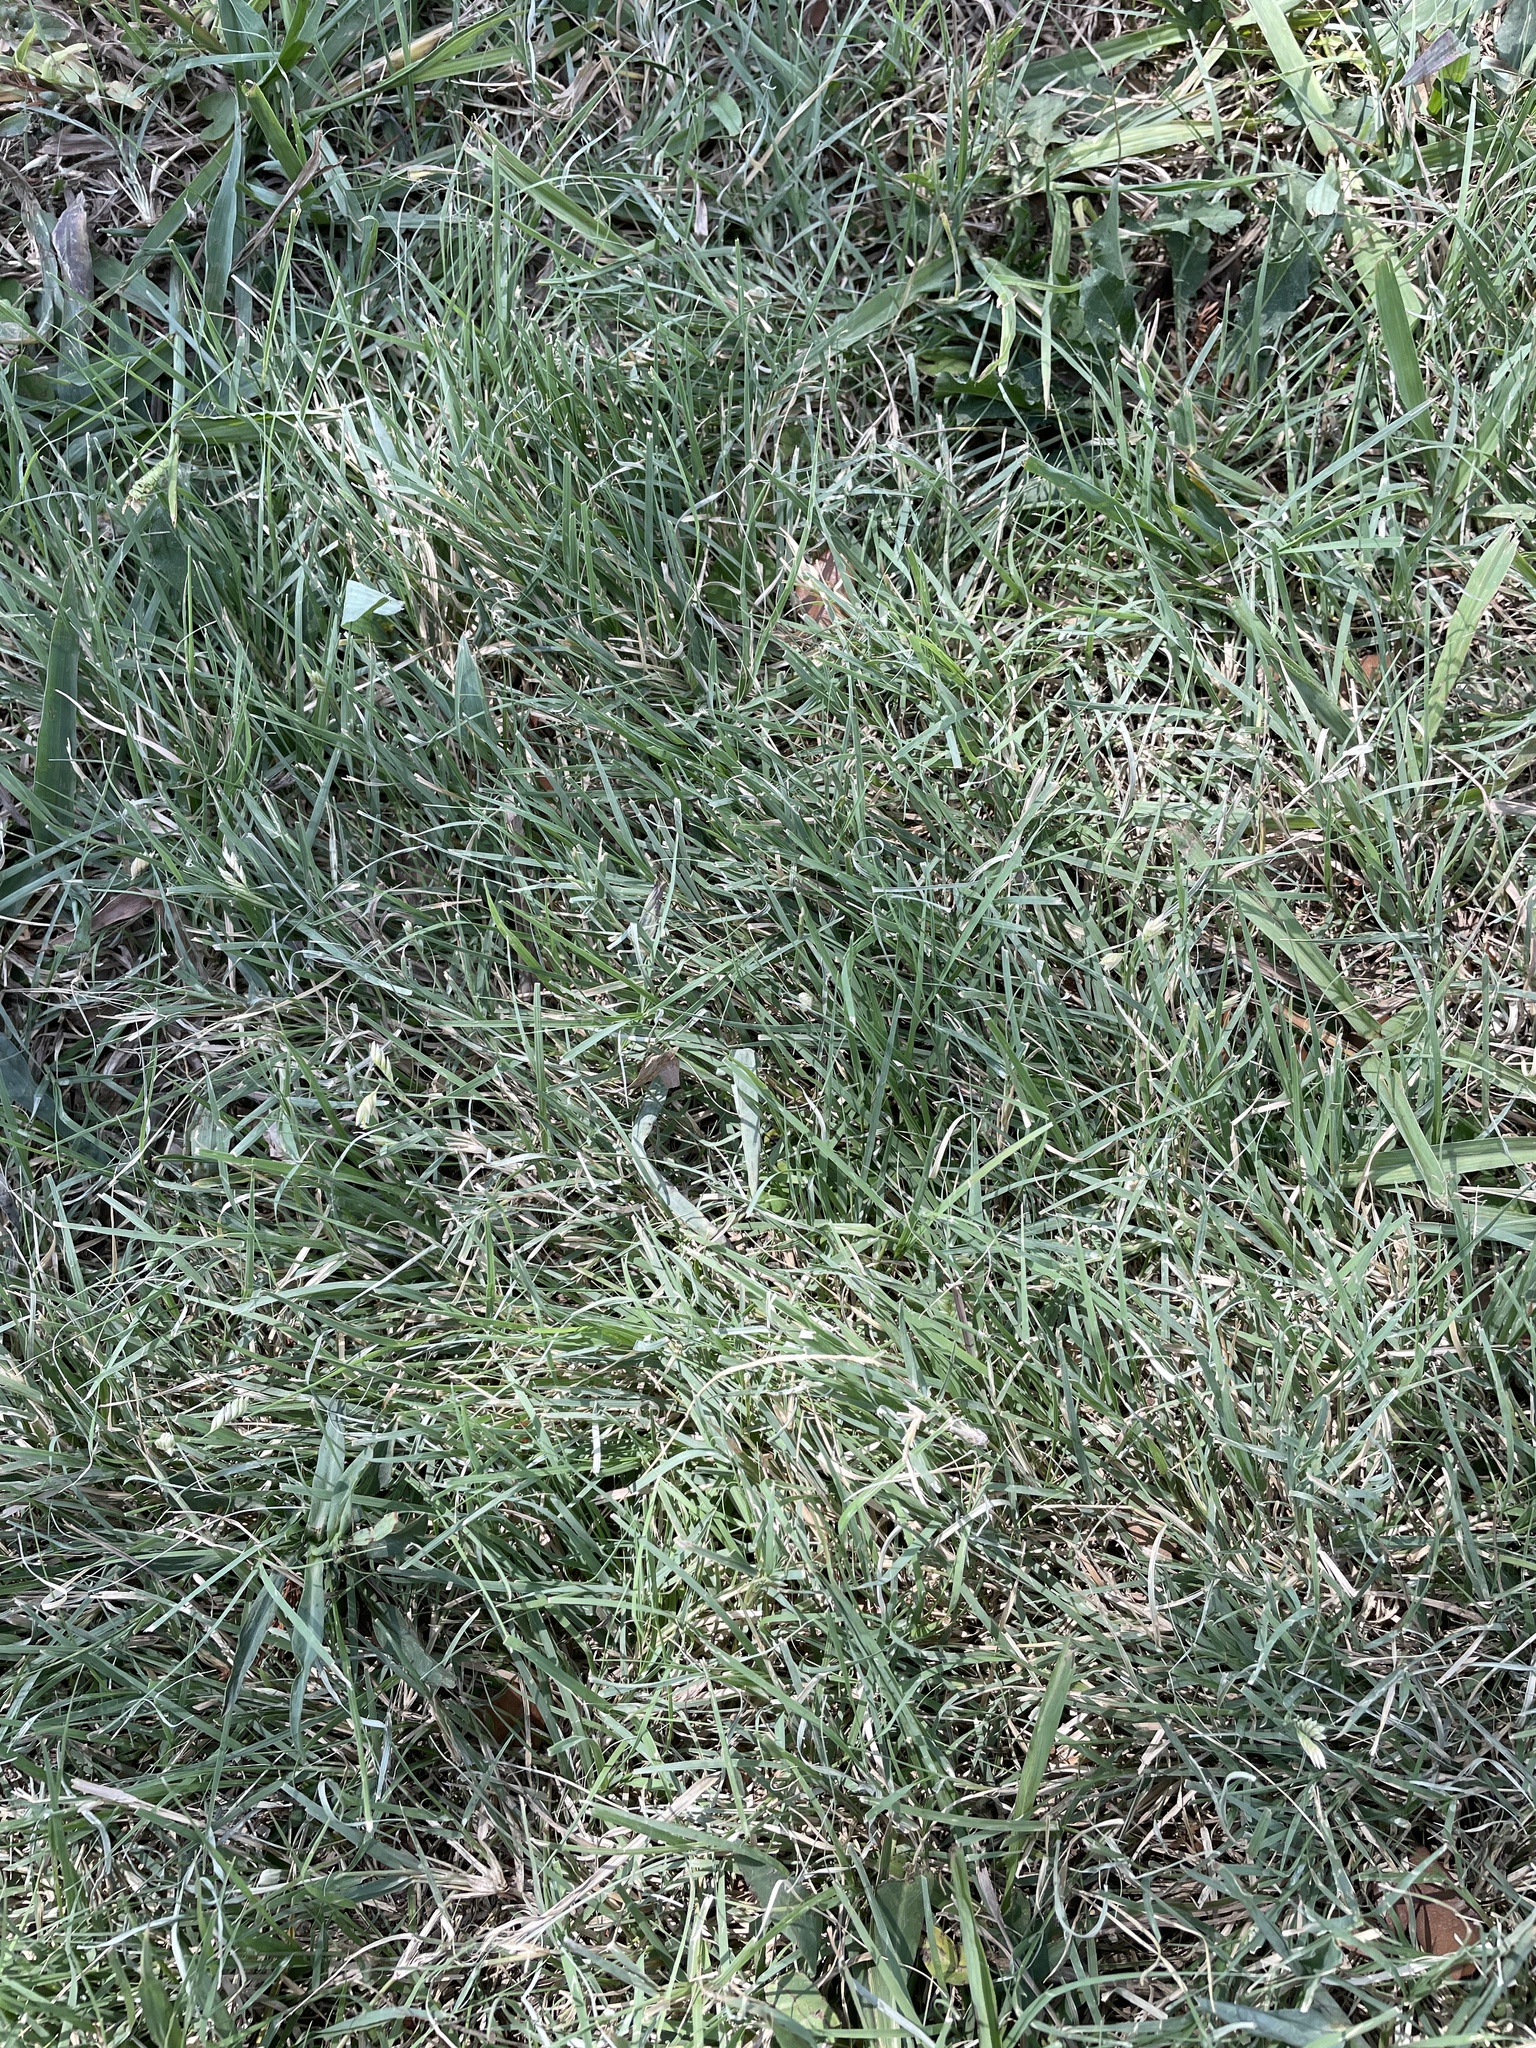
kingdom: Plantae
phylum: Tracheophyta
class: Liliopsida
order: Poales
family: Poaceae
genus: Bouteloua
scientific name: Bouteloua dactyloides
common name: Buffalo grass
